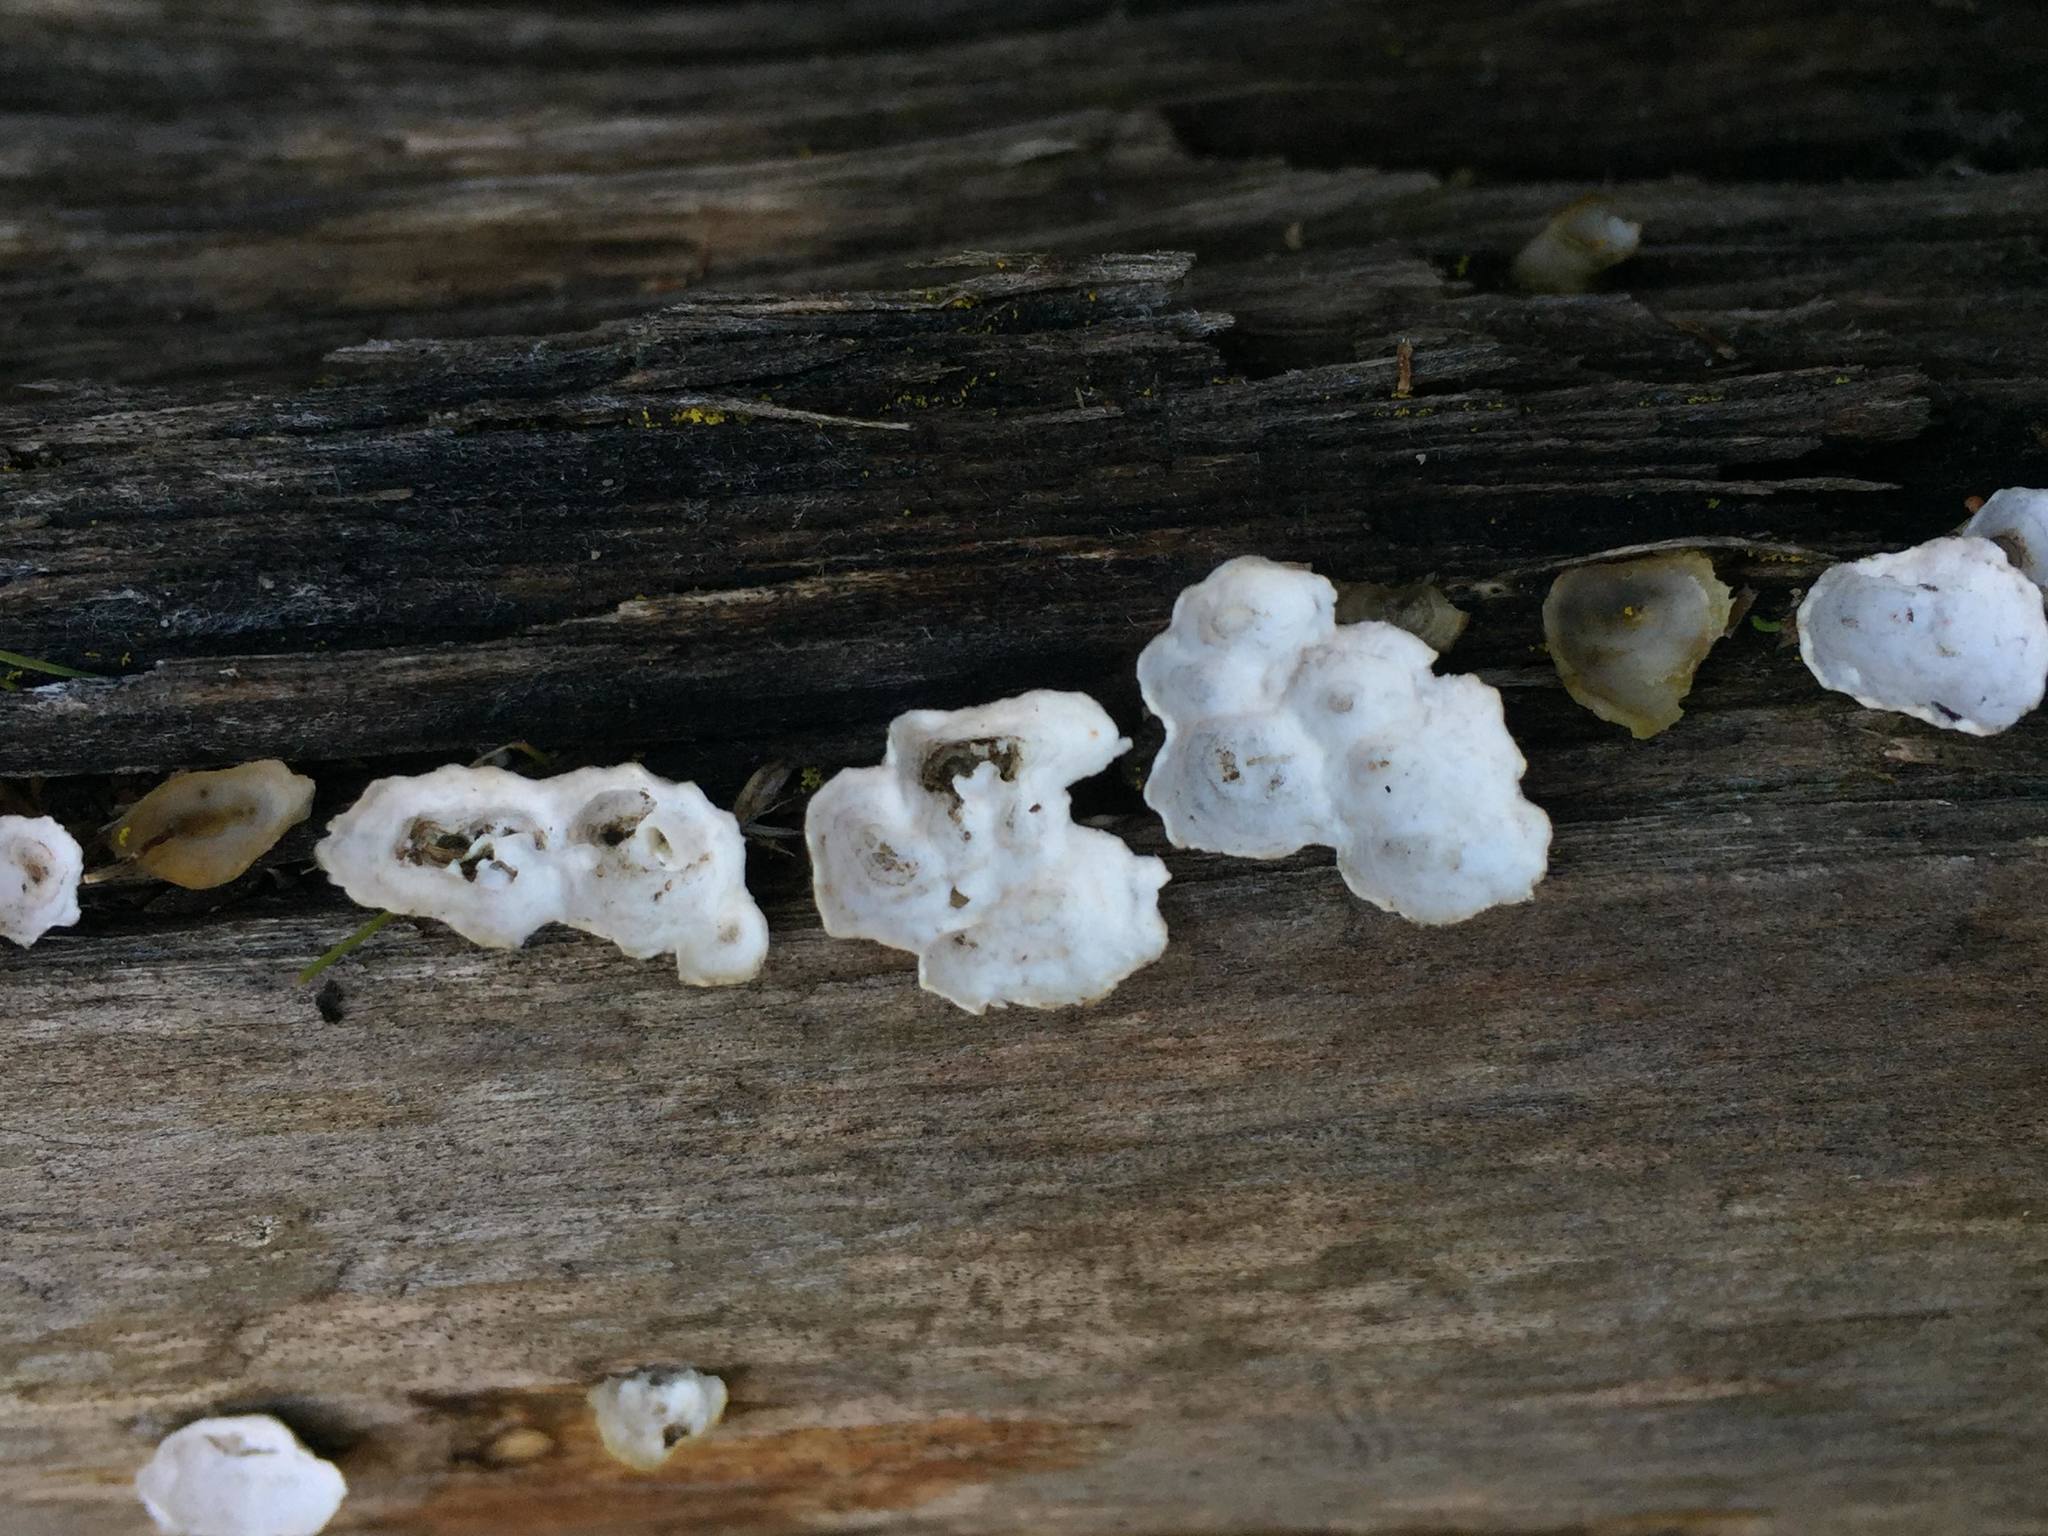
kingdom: Fungi
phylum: Basidiomycota
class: Agaricomycetes
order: Polyporales
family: Polyporaceae
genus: Poronidulus
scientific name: Poronidulus conchifer
